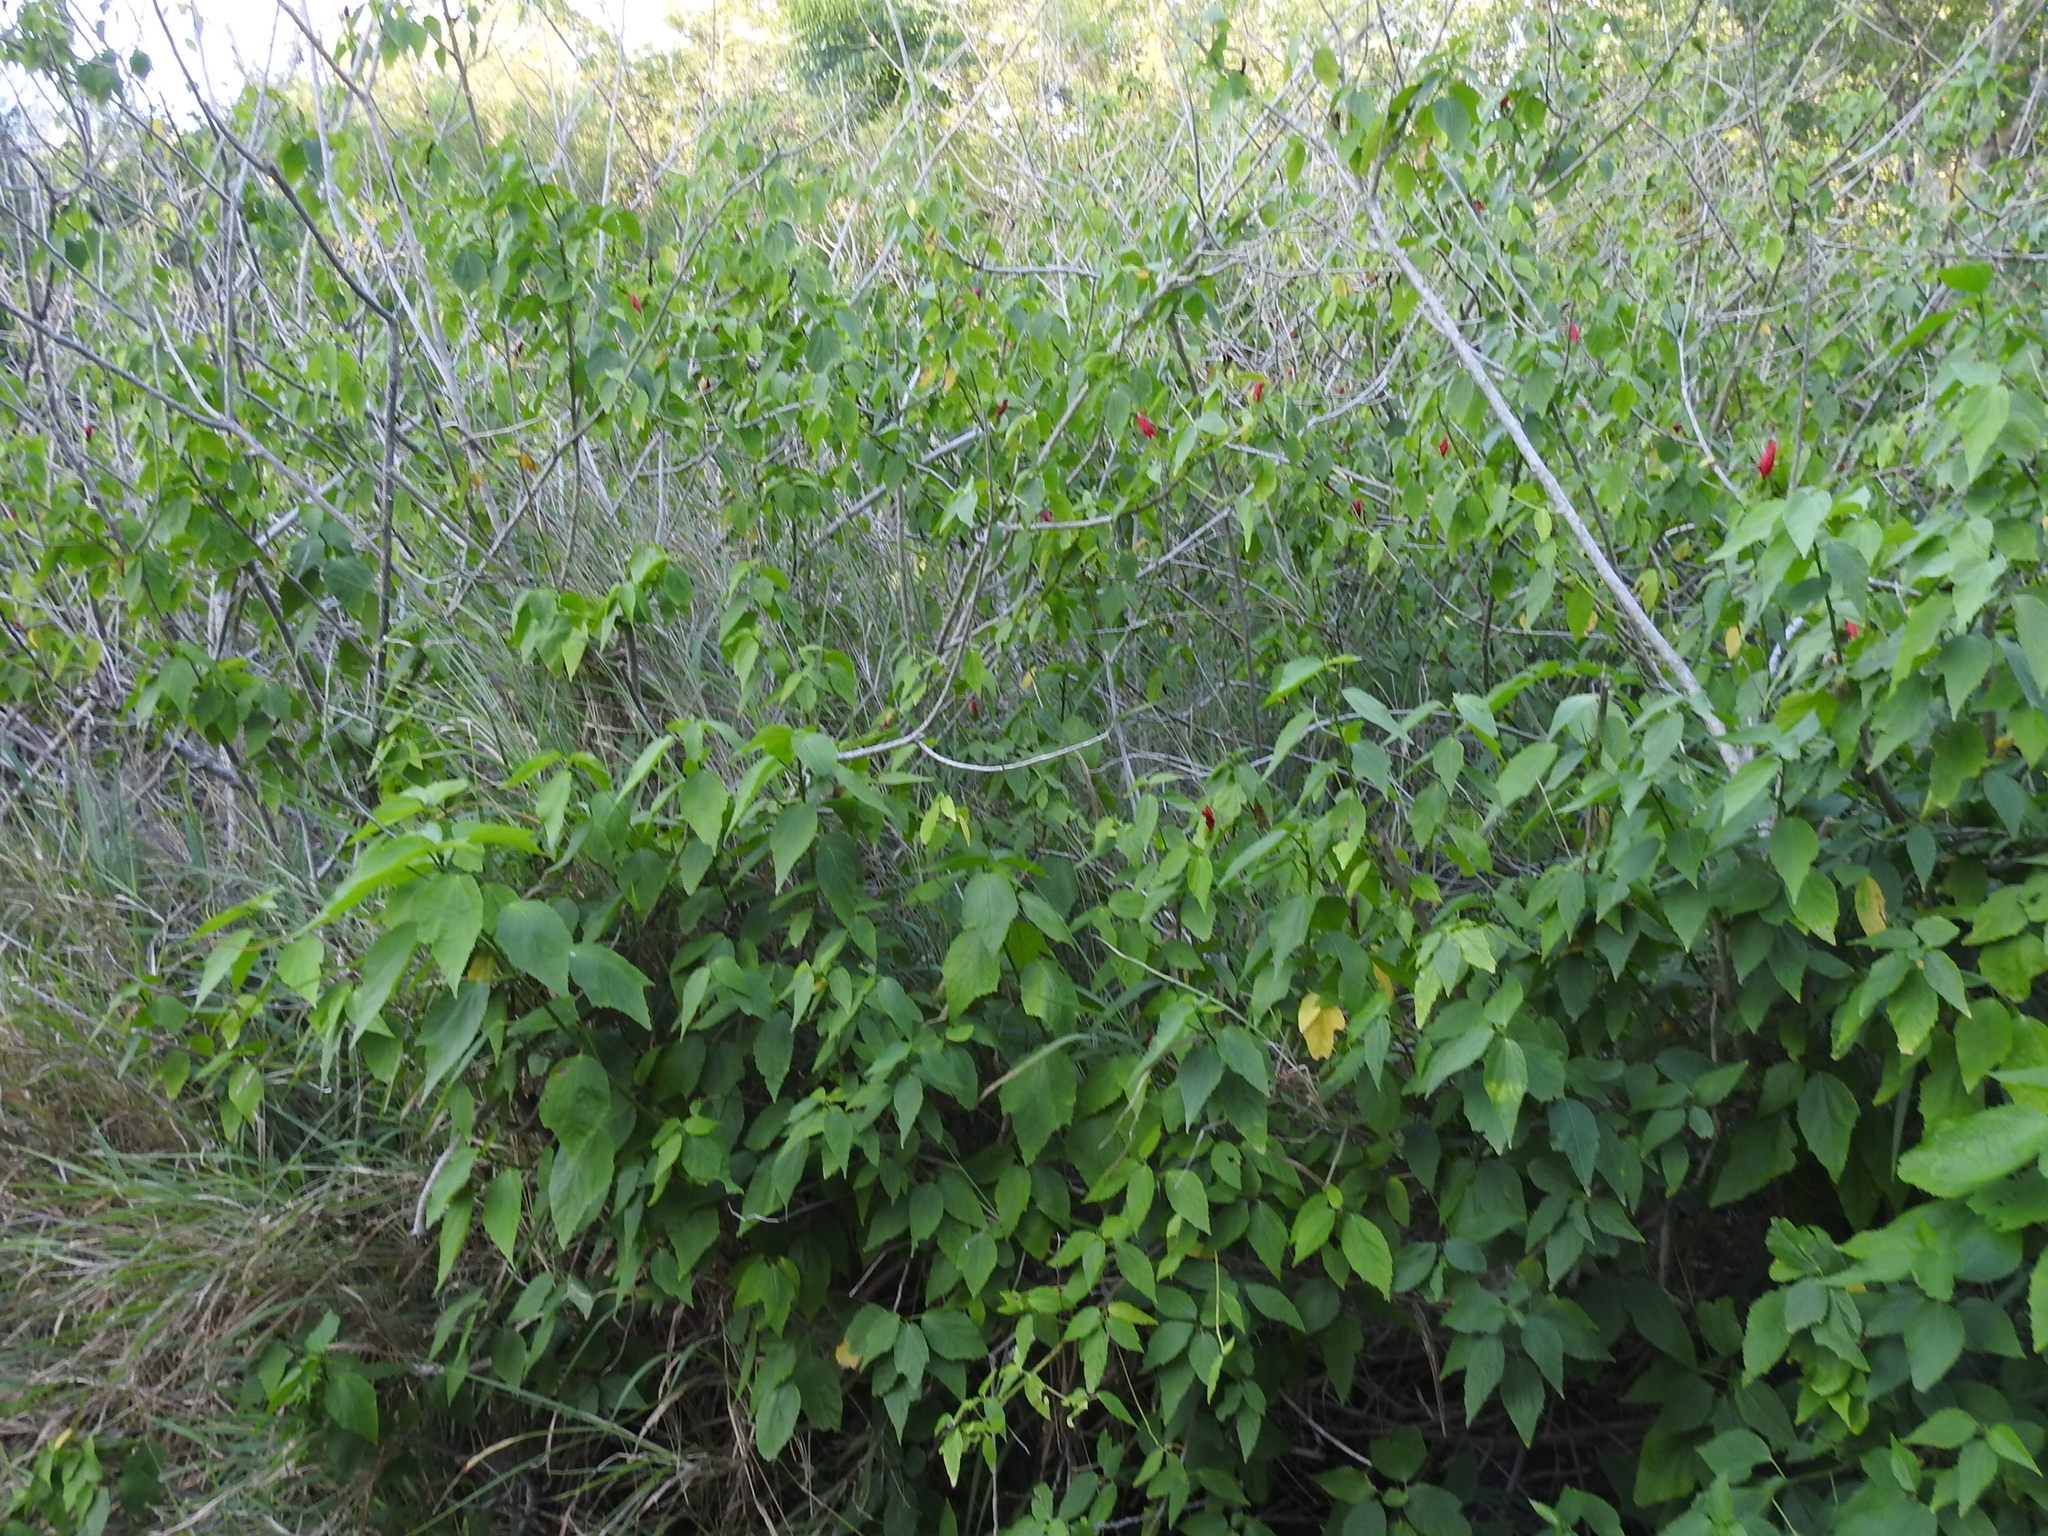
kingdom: Plantae
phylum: Tracheophyta
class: Magnoliopsida
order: Malvales
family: Malvaceae
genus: Malvaviscus
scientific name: Malvaviscus penduliflorus
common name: Mazapan
